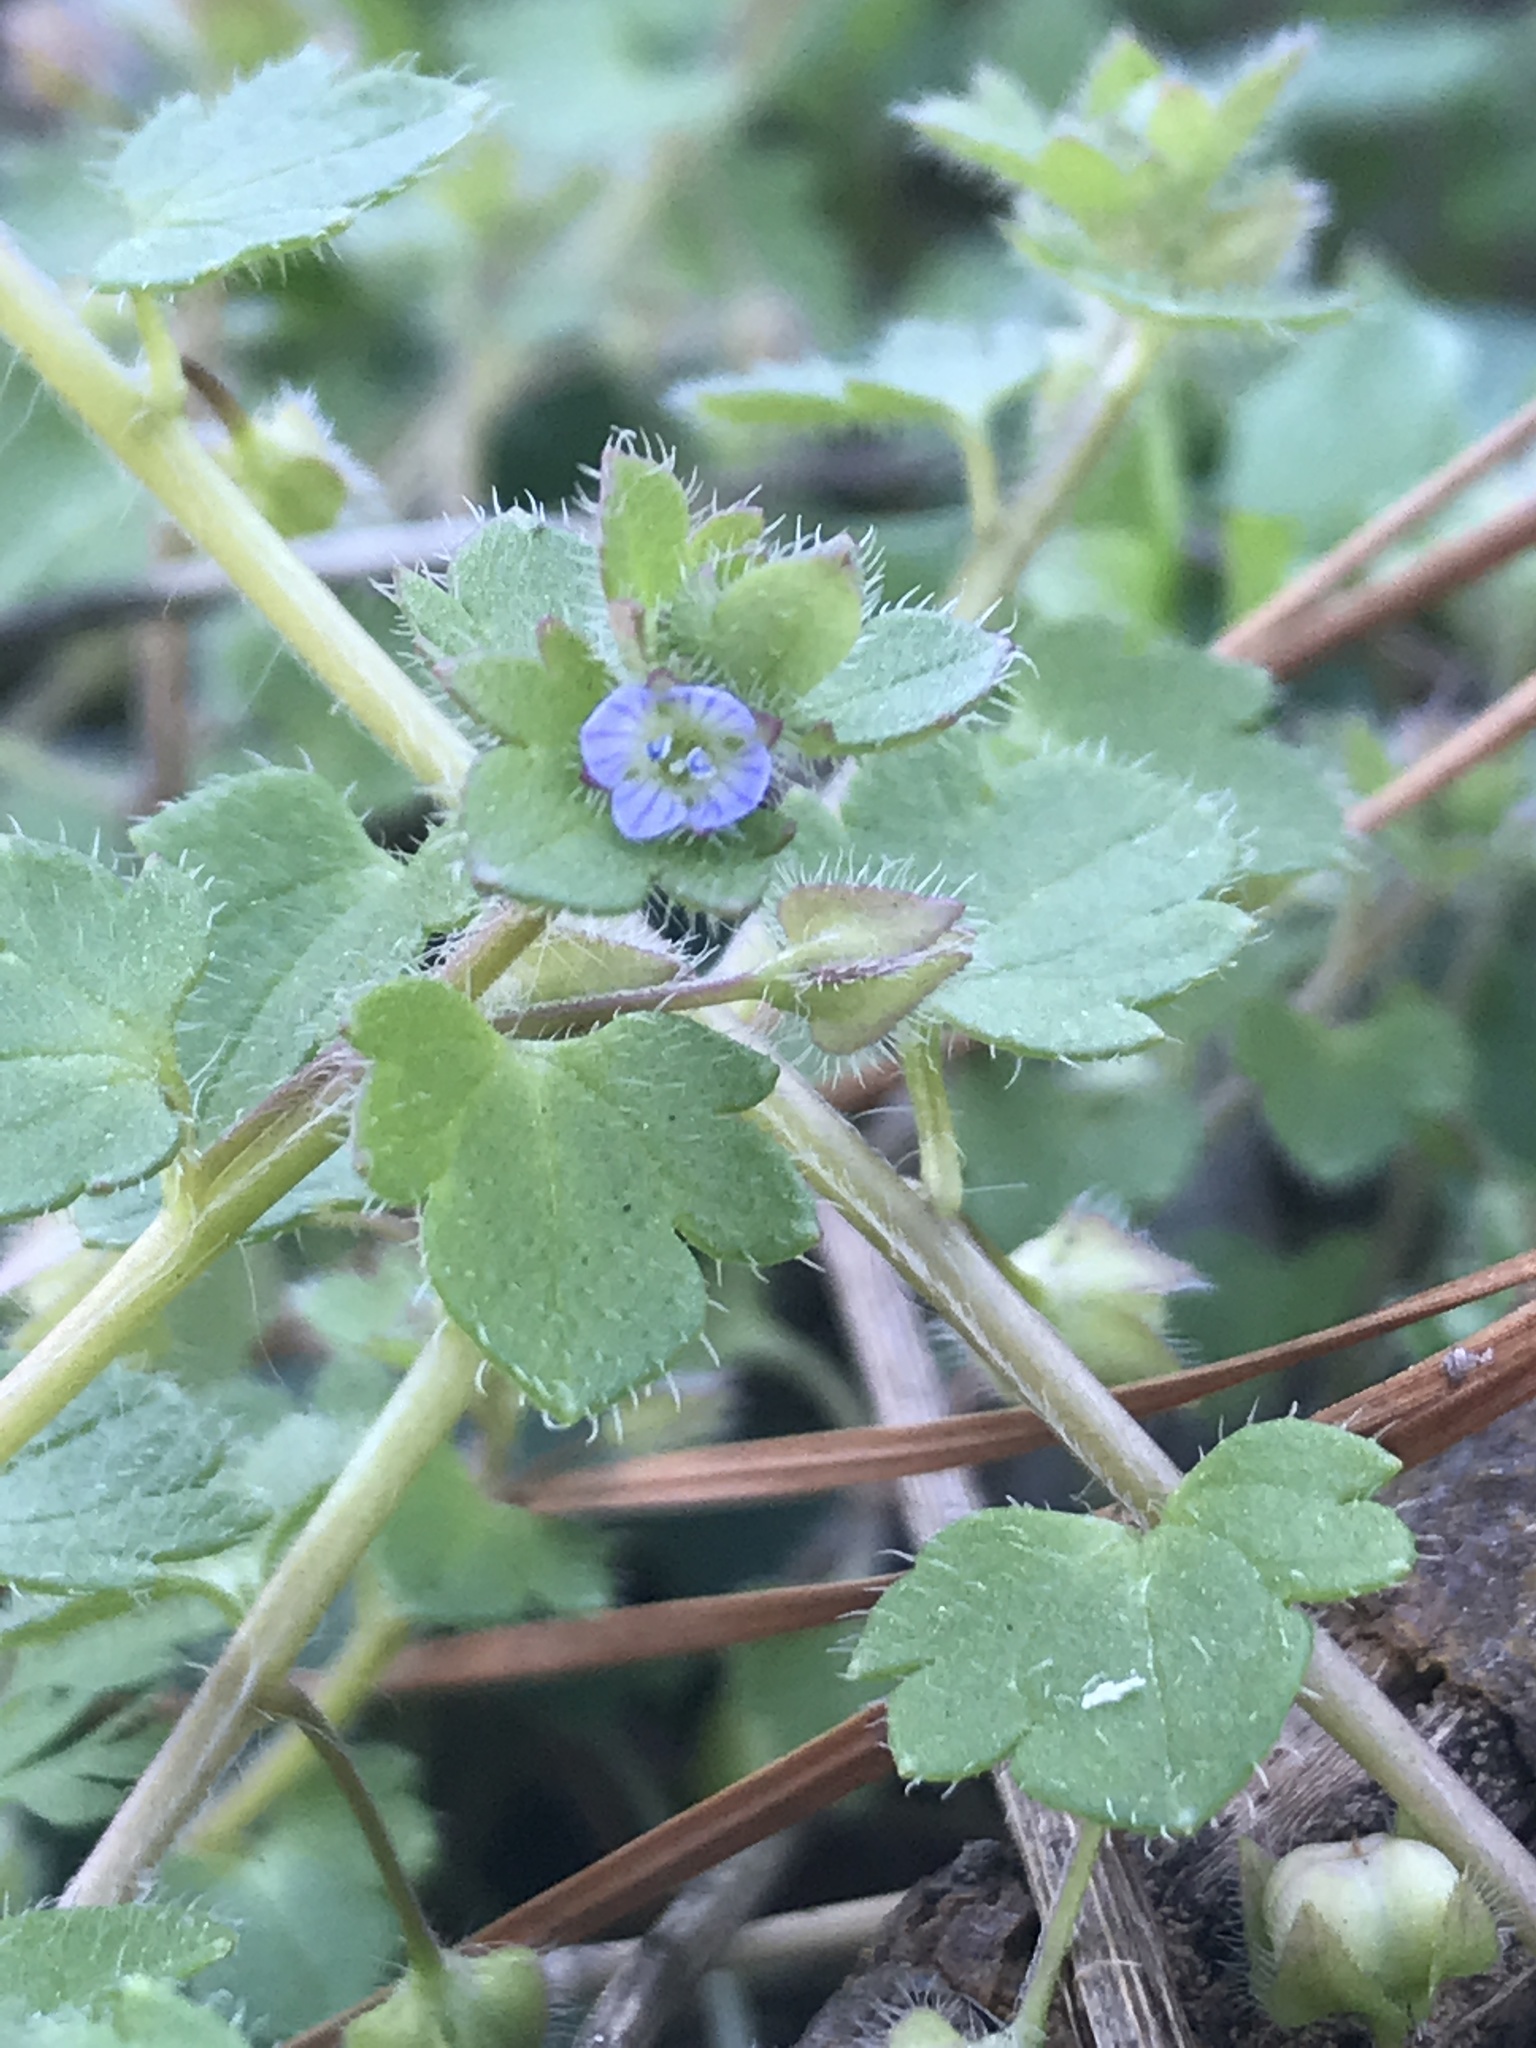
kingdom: Plantae
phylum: Tracheophyta
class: Magnoliopsida
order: Lamiales
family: Plantaginaceae
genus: Veronica
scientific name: Veronica hederifolia
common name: Ivy-leaved speedwell
